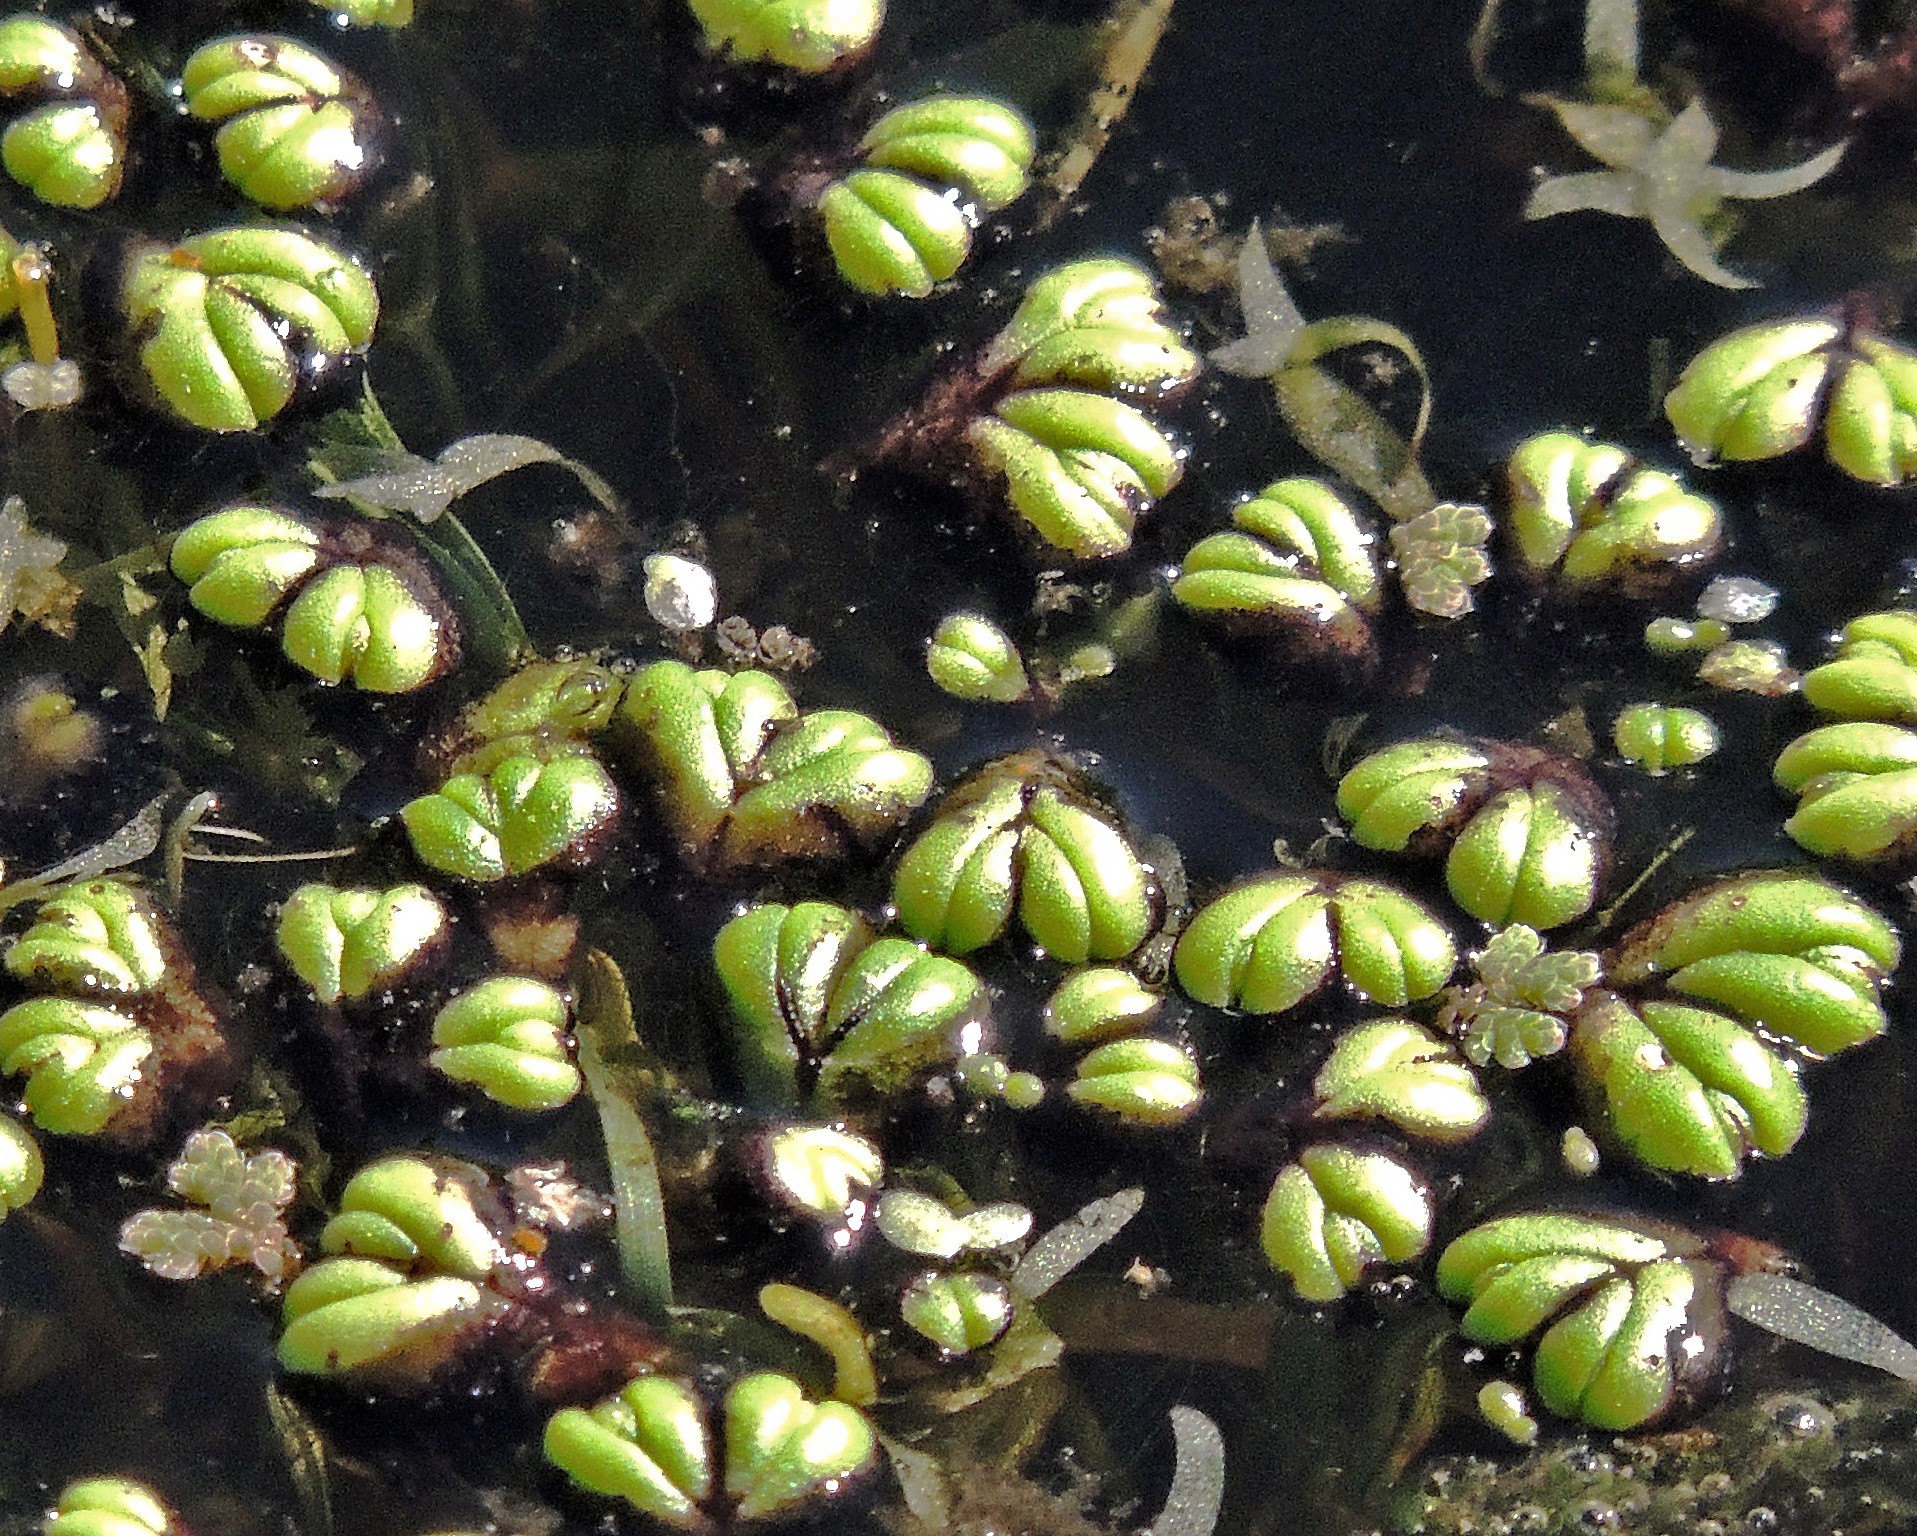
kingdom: Plantae
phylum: Marchantiophyta
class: Marchantiopsida
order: Marchantiales
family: Ricciaceae
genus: Ricciocarpos
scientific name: Ricciocarpos natans
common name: Purple-fringed liverwort
